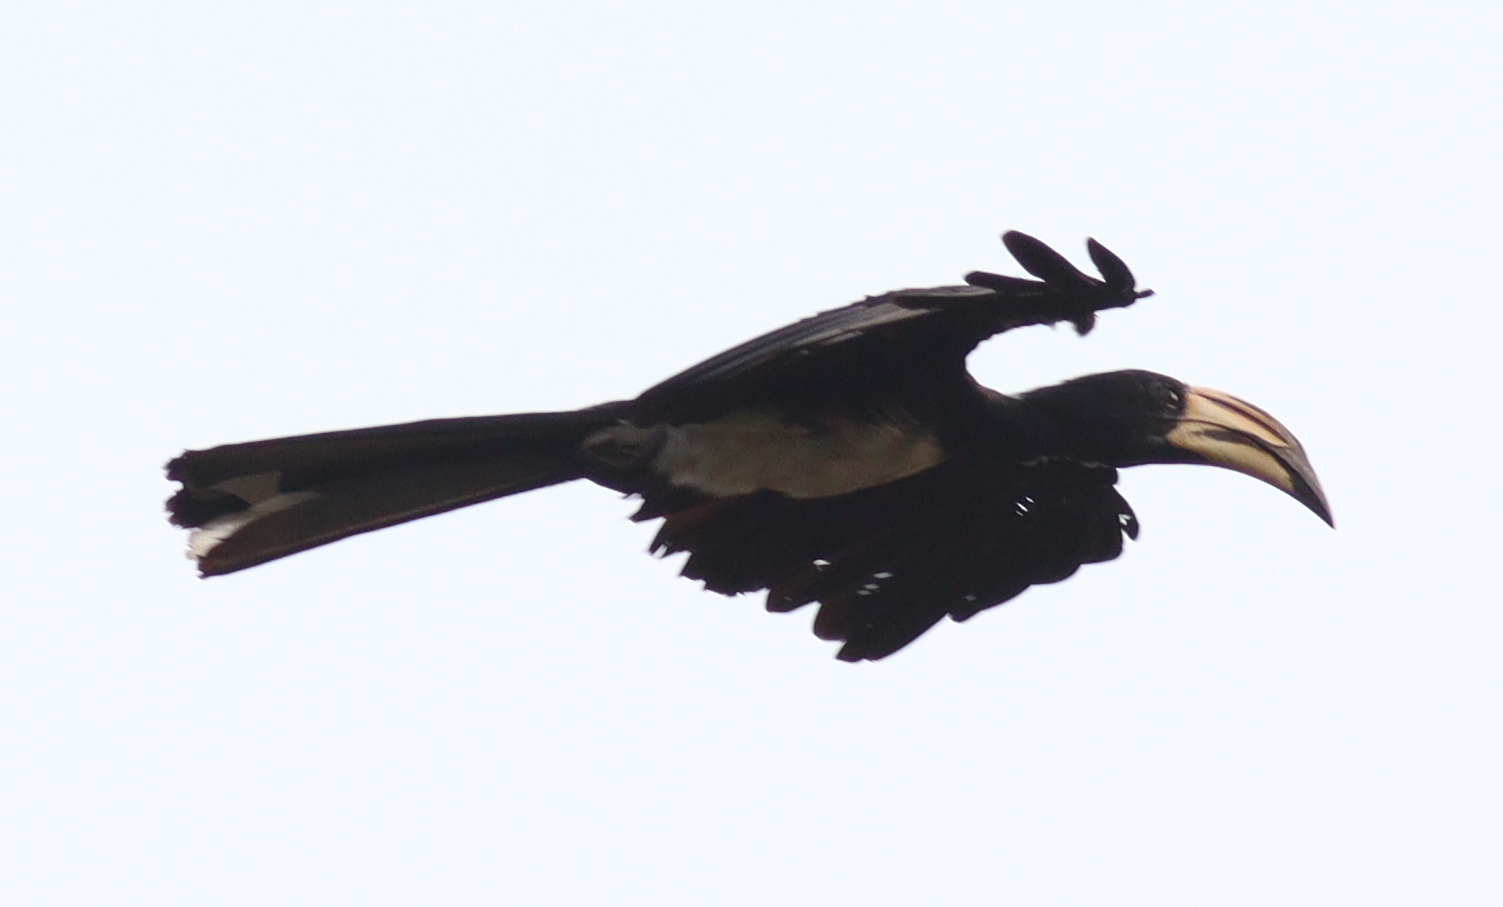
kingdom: Animalia
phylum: Chordata
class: Aves
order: Bucerotiformes
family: Bucerotidae
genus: Lophoceros
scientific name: Lophoceros fasciatus
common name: African pied hornbill
